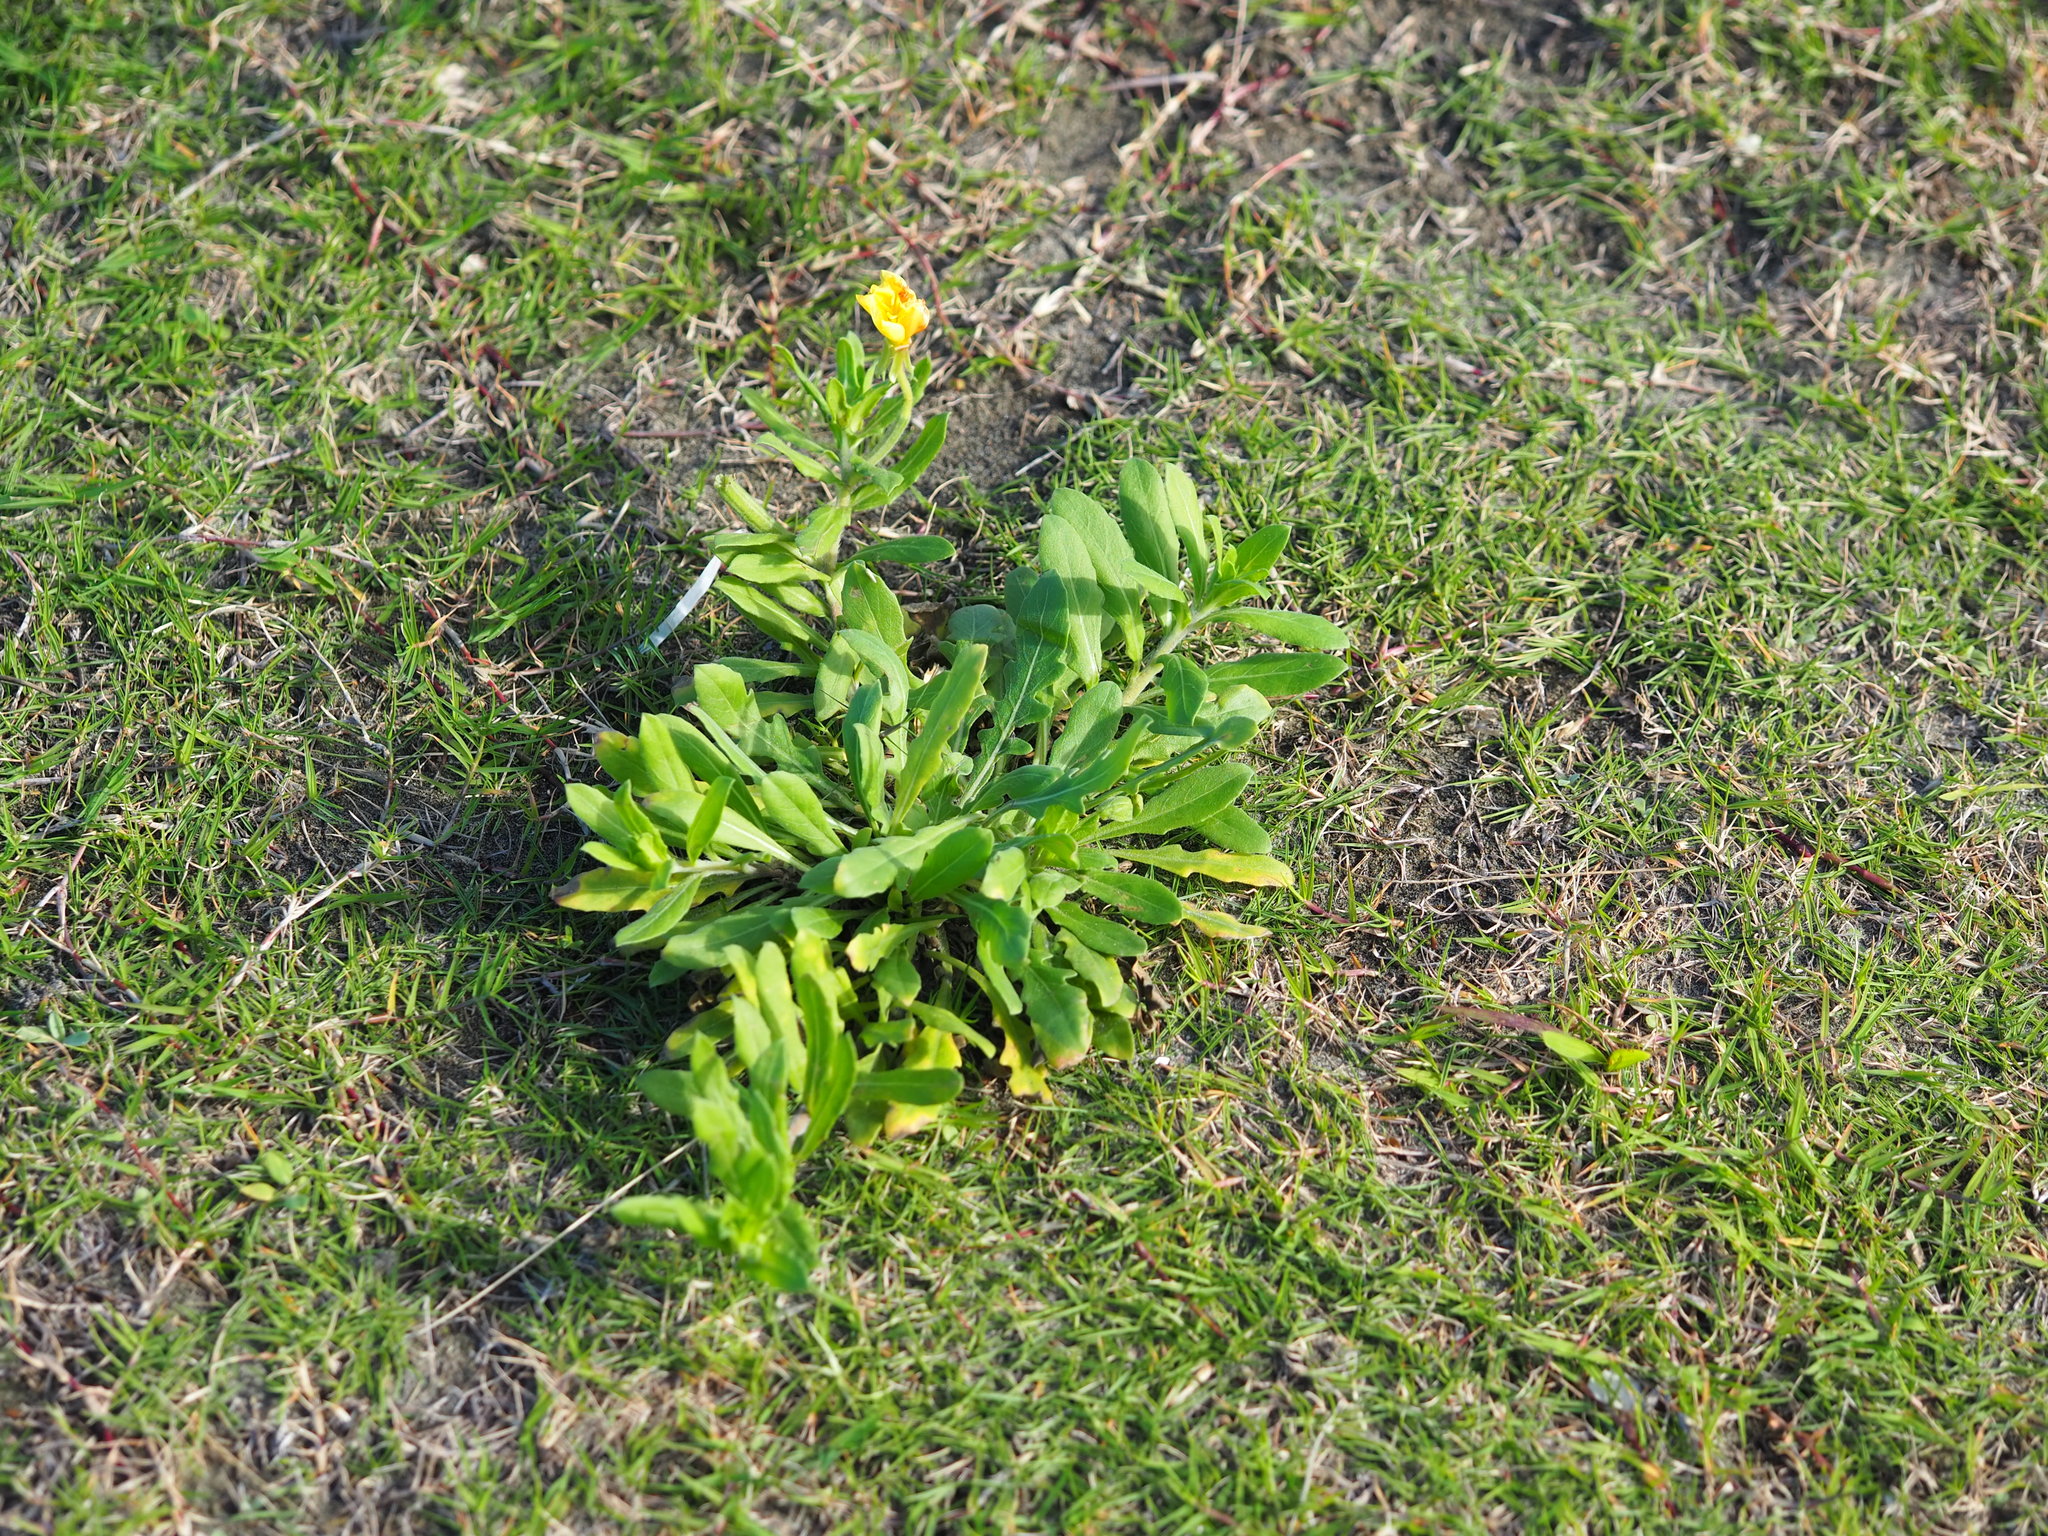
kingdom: Plantae
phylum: Tracheophyta
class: Magnoliopsida
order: Myrtales
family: Onagraceae
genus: Oenothera
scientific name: Oenothera laciniata
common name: Cut-leaved evening-primrose
